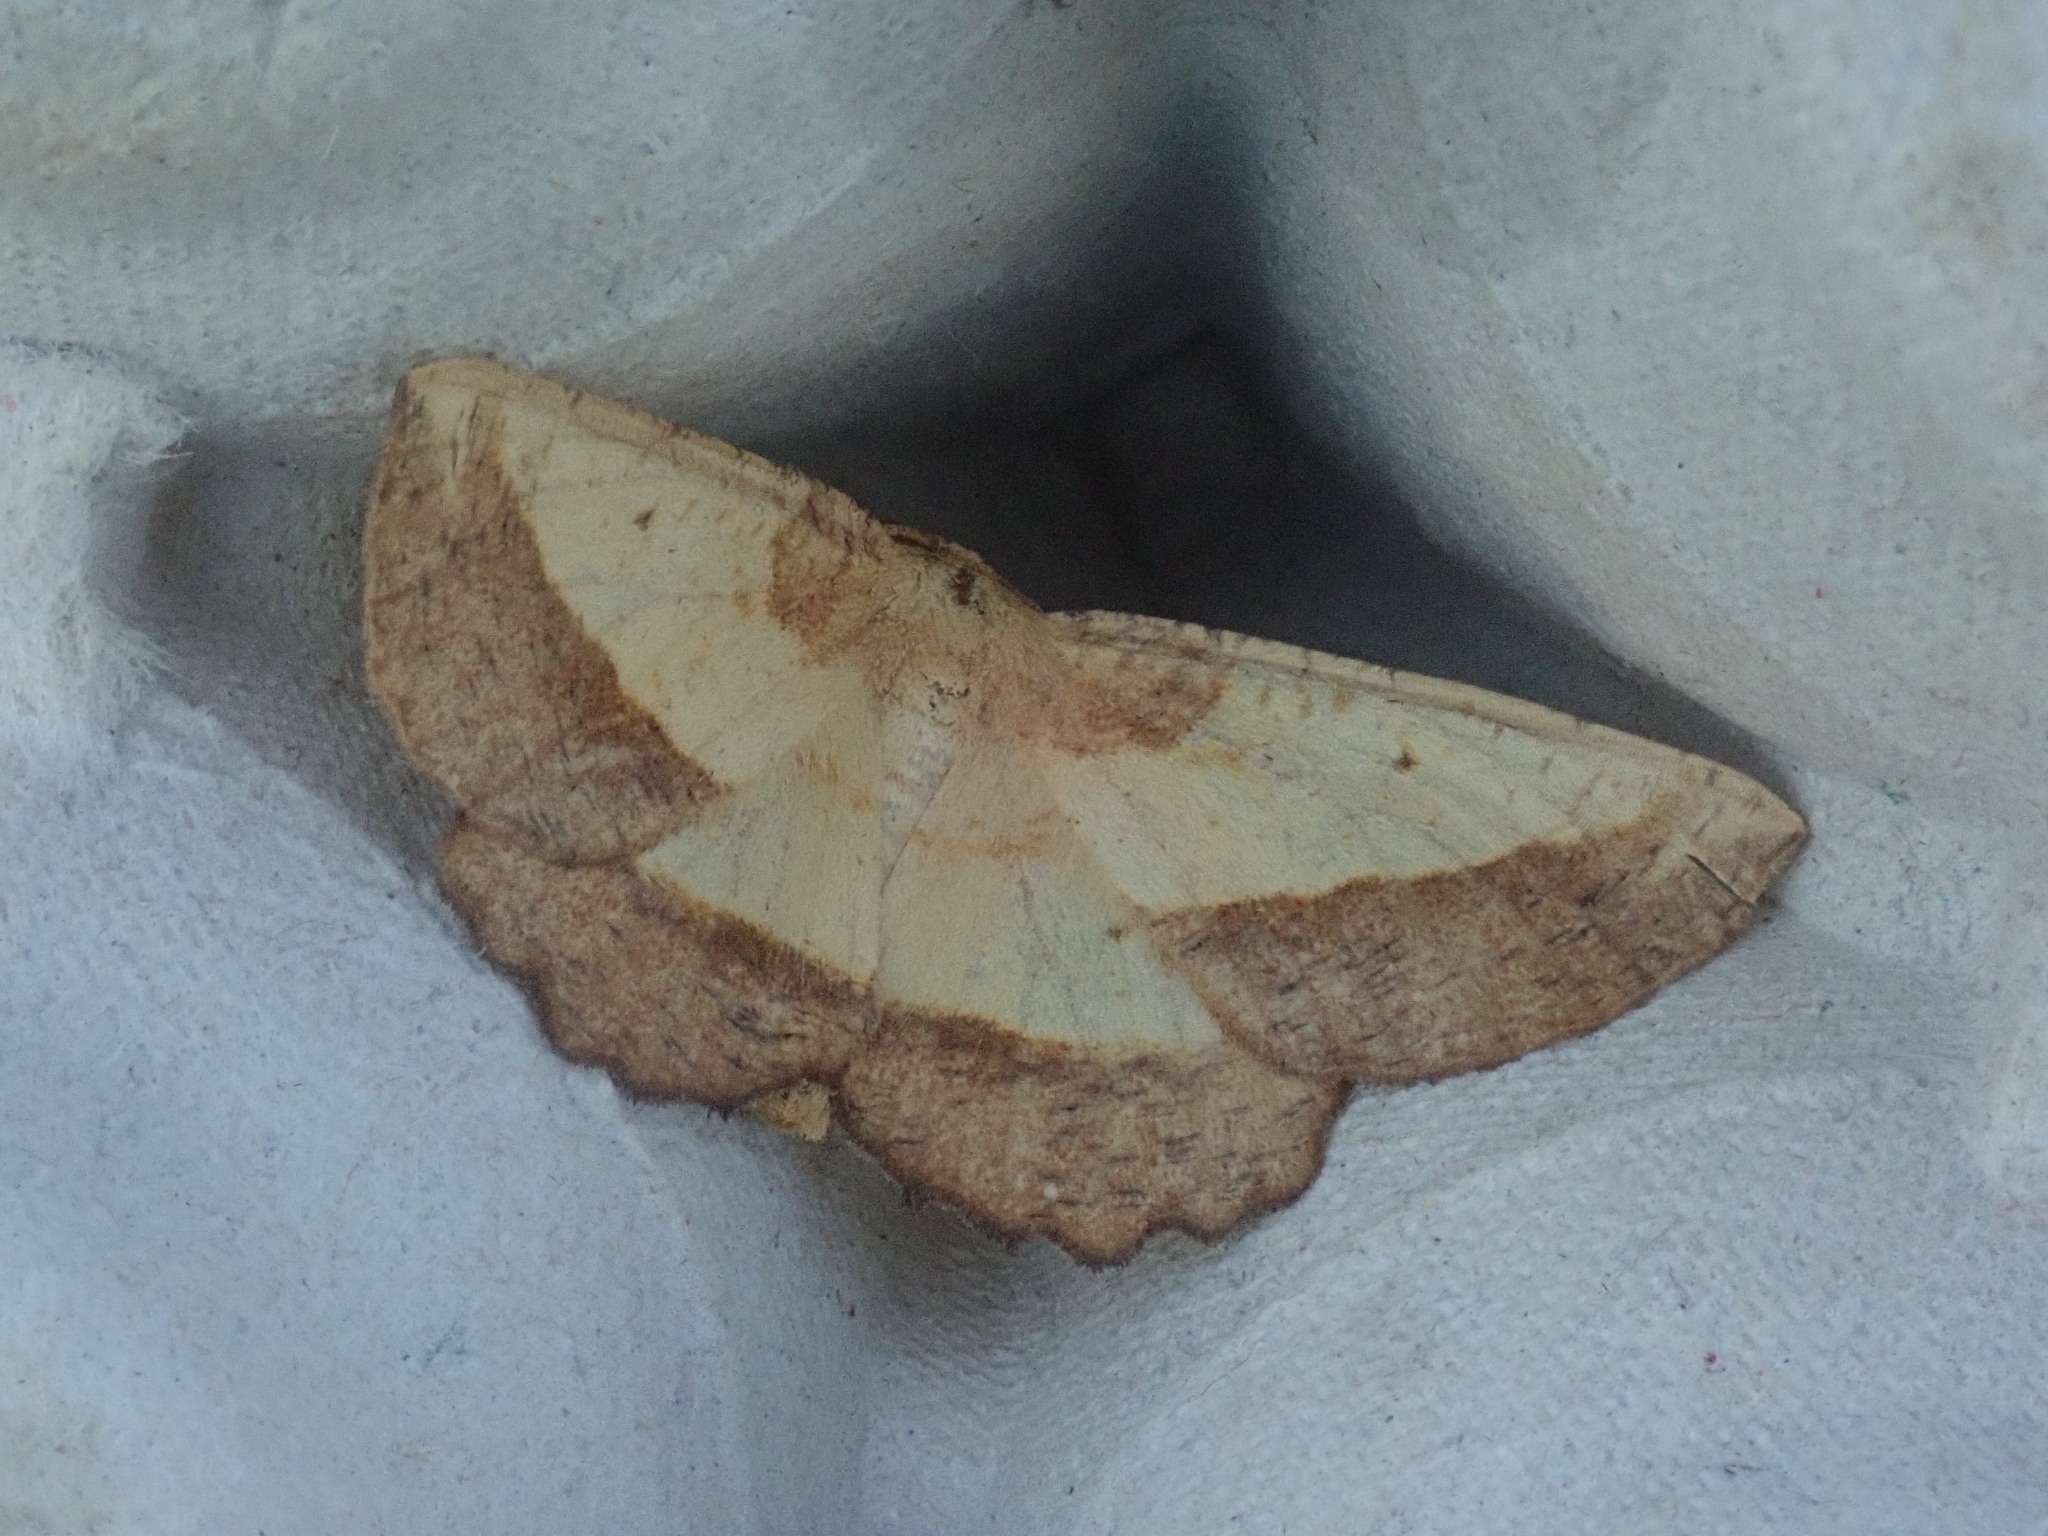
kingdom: Animalia
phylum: Arthropoda
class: Insecta
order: Lepidoptera
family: Geometridae
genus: Euchlaena
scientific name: Euchlaena serrata
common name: Saw wing
